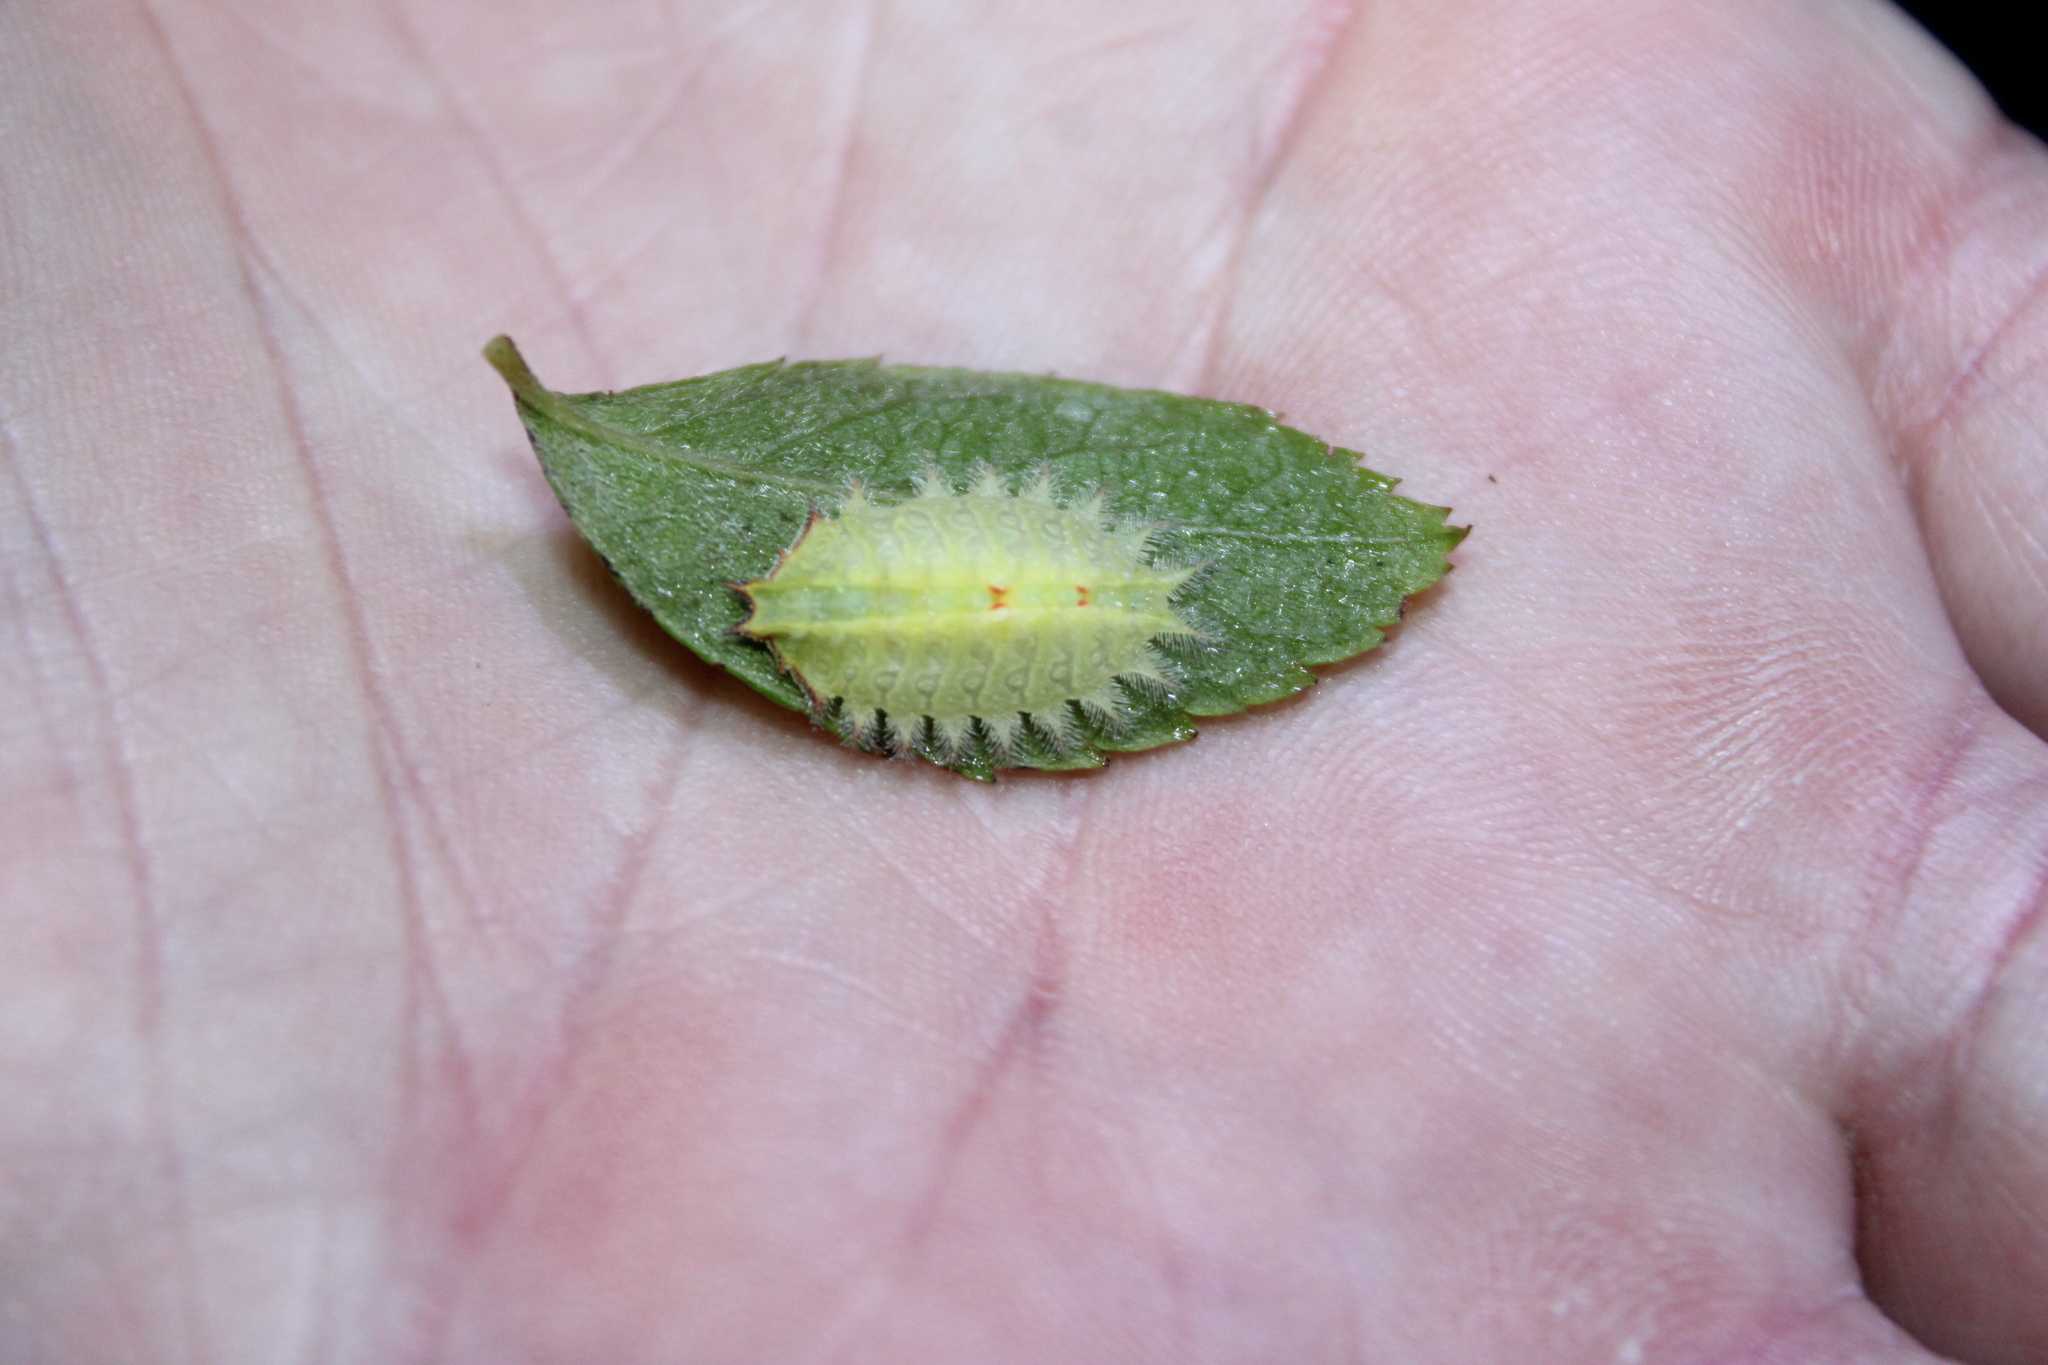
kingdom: Animalia
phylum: Arthropoda
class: Insecta
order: Lepidoptera
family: Limacodidae
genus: Isa
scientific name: Isa textula
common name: Crowned slug moth
